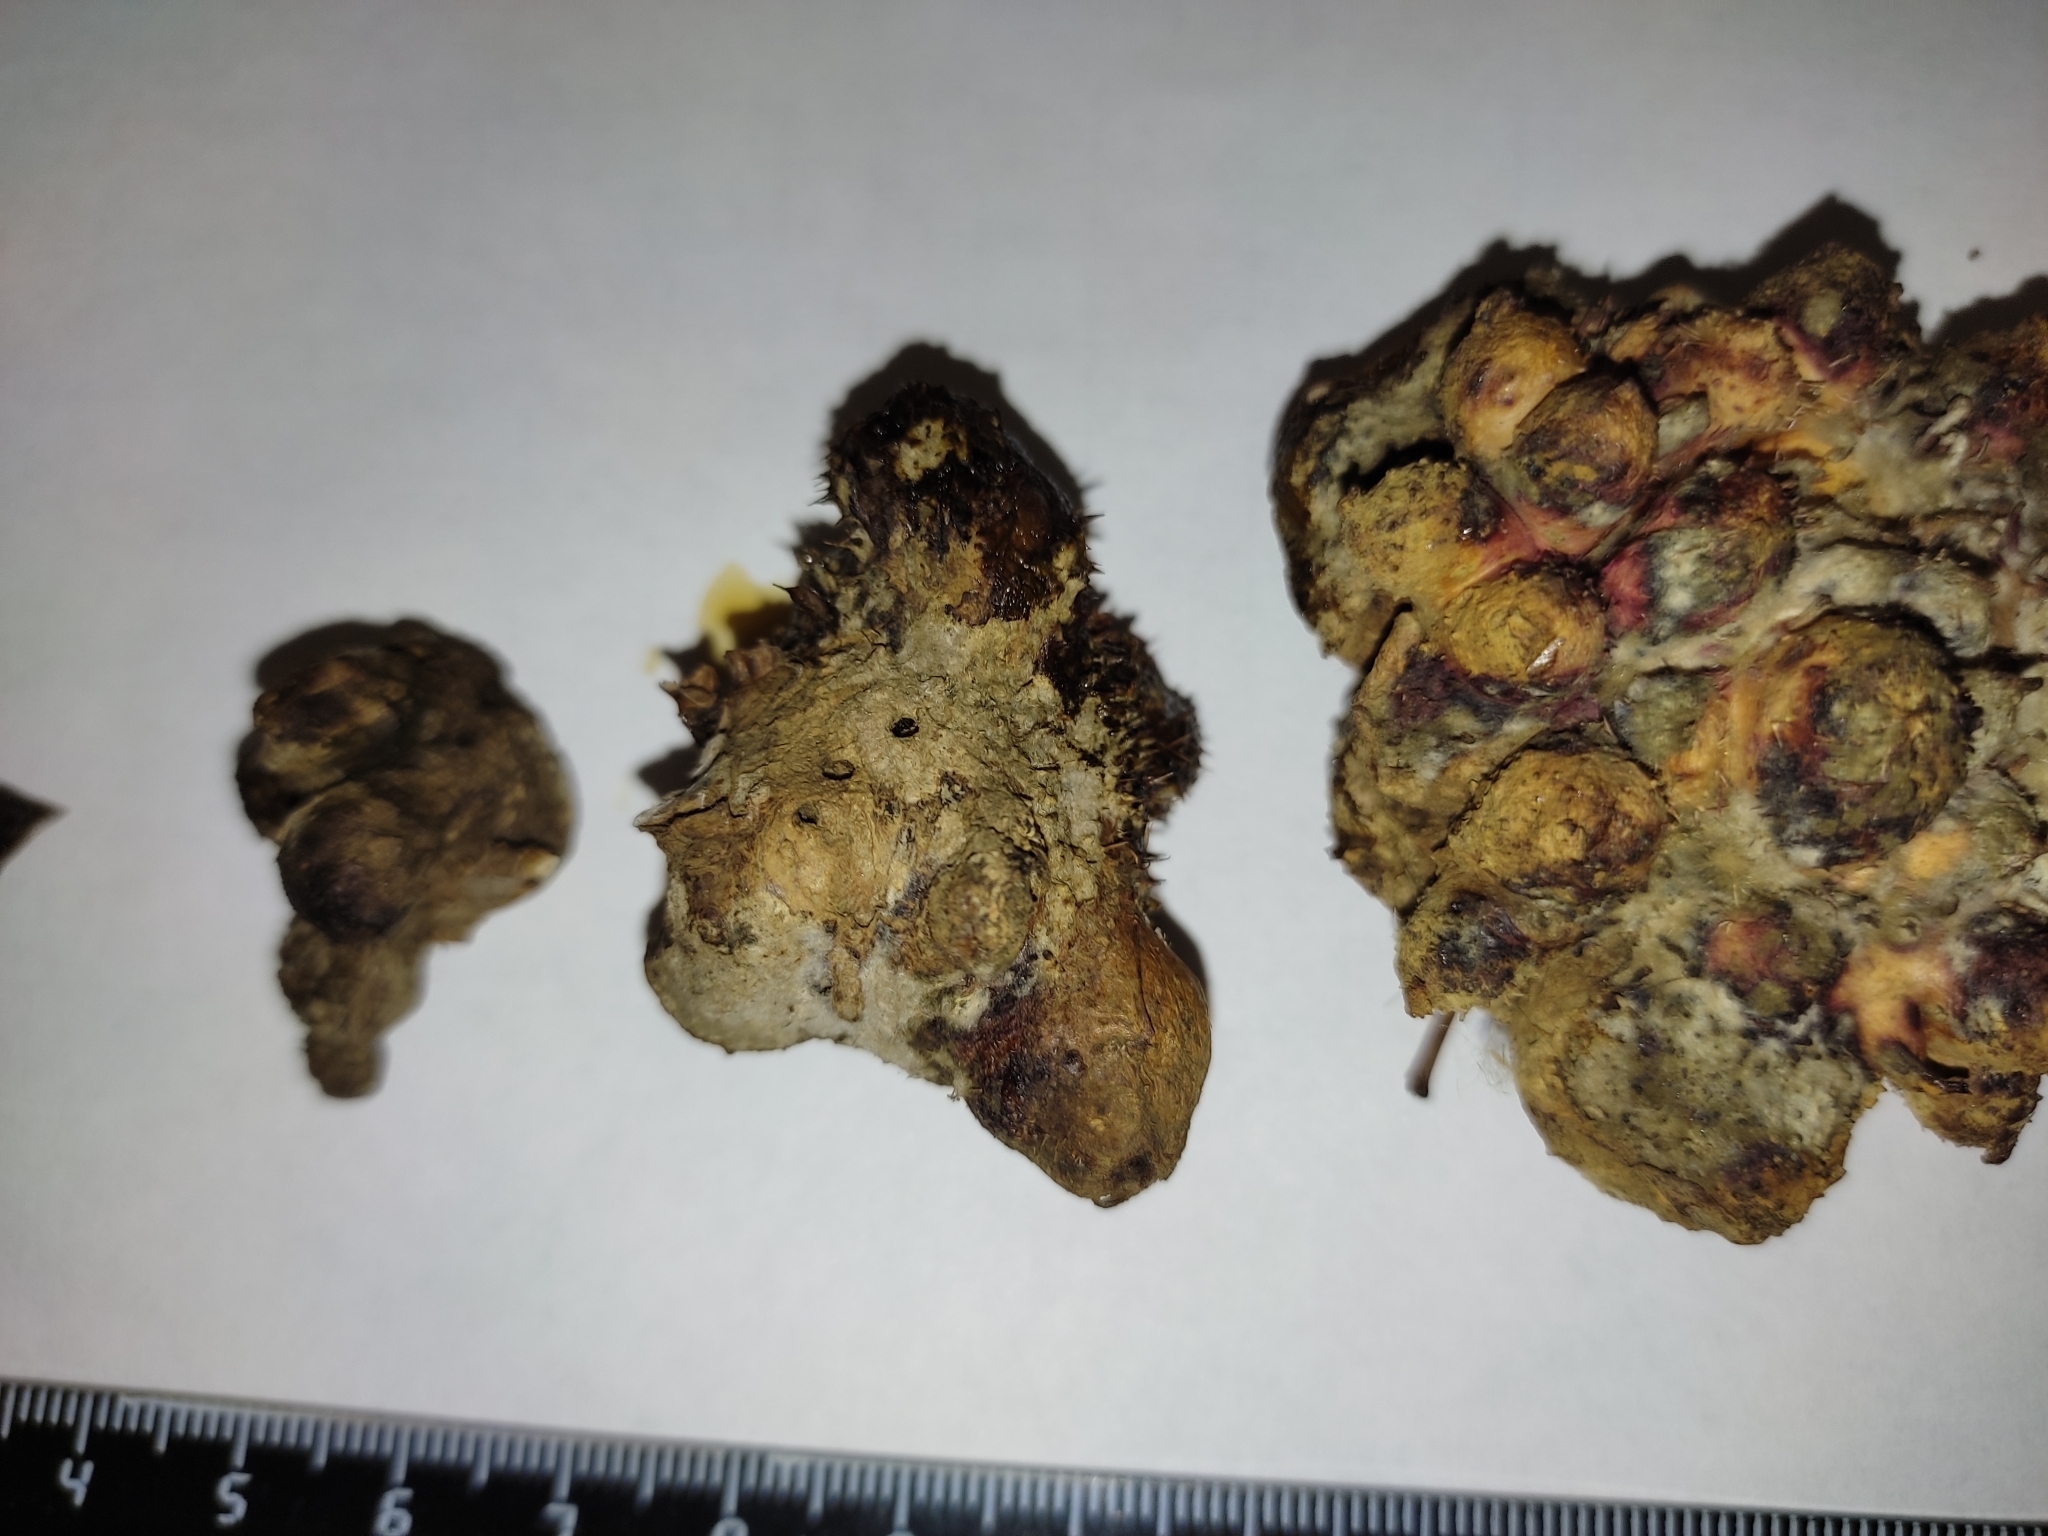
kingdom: Animalia
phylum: Arthropoda
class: Insecta
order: Hymenoptera
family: Cynipidae
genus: Diplolepis
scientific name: Diplolepis fructuum
